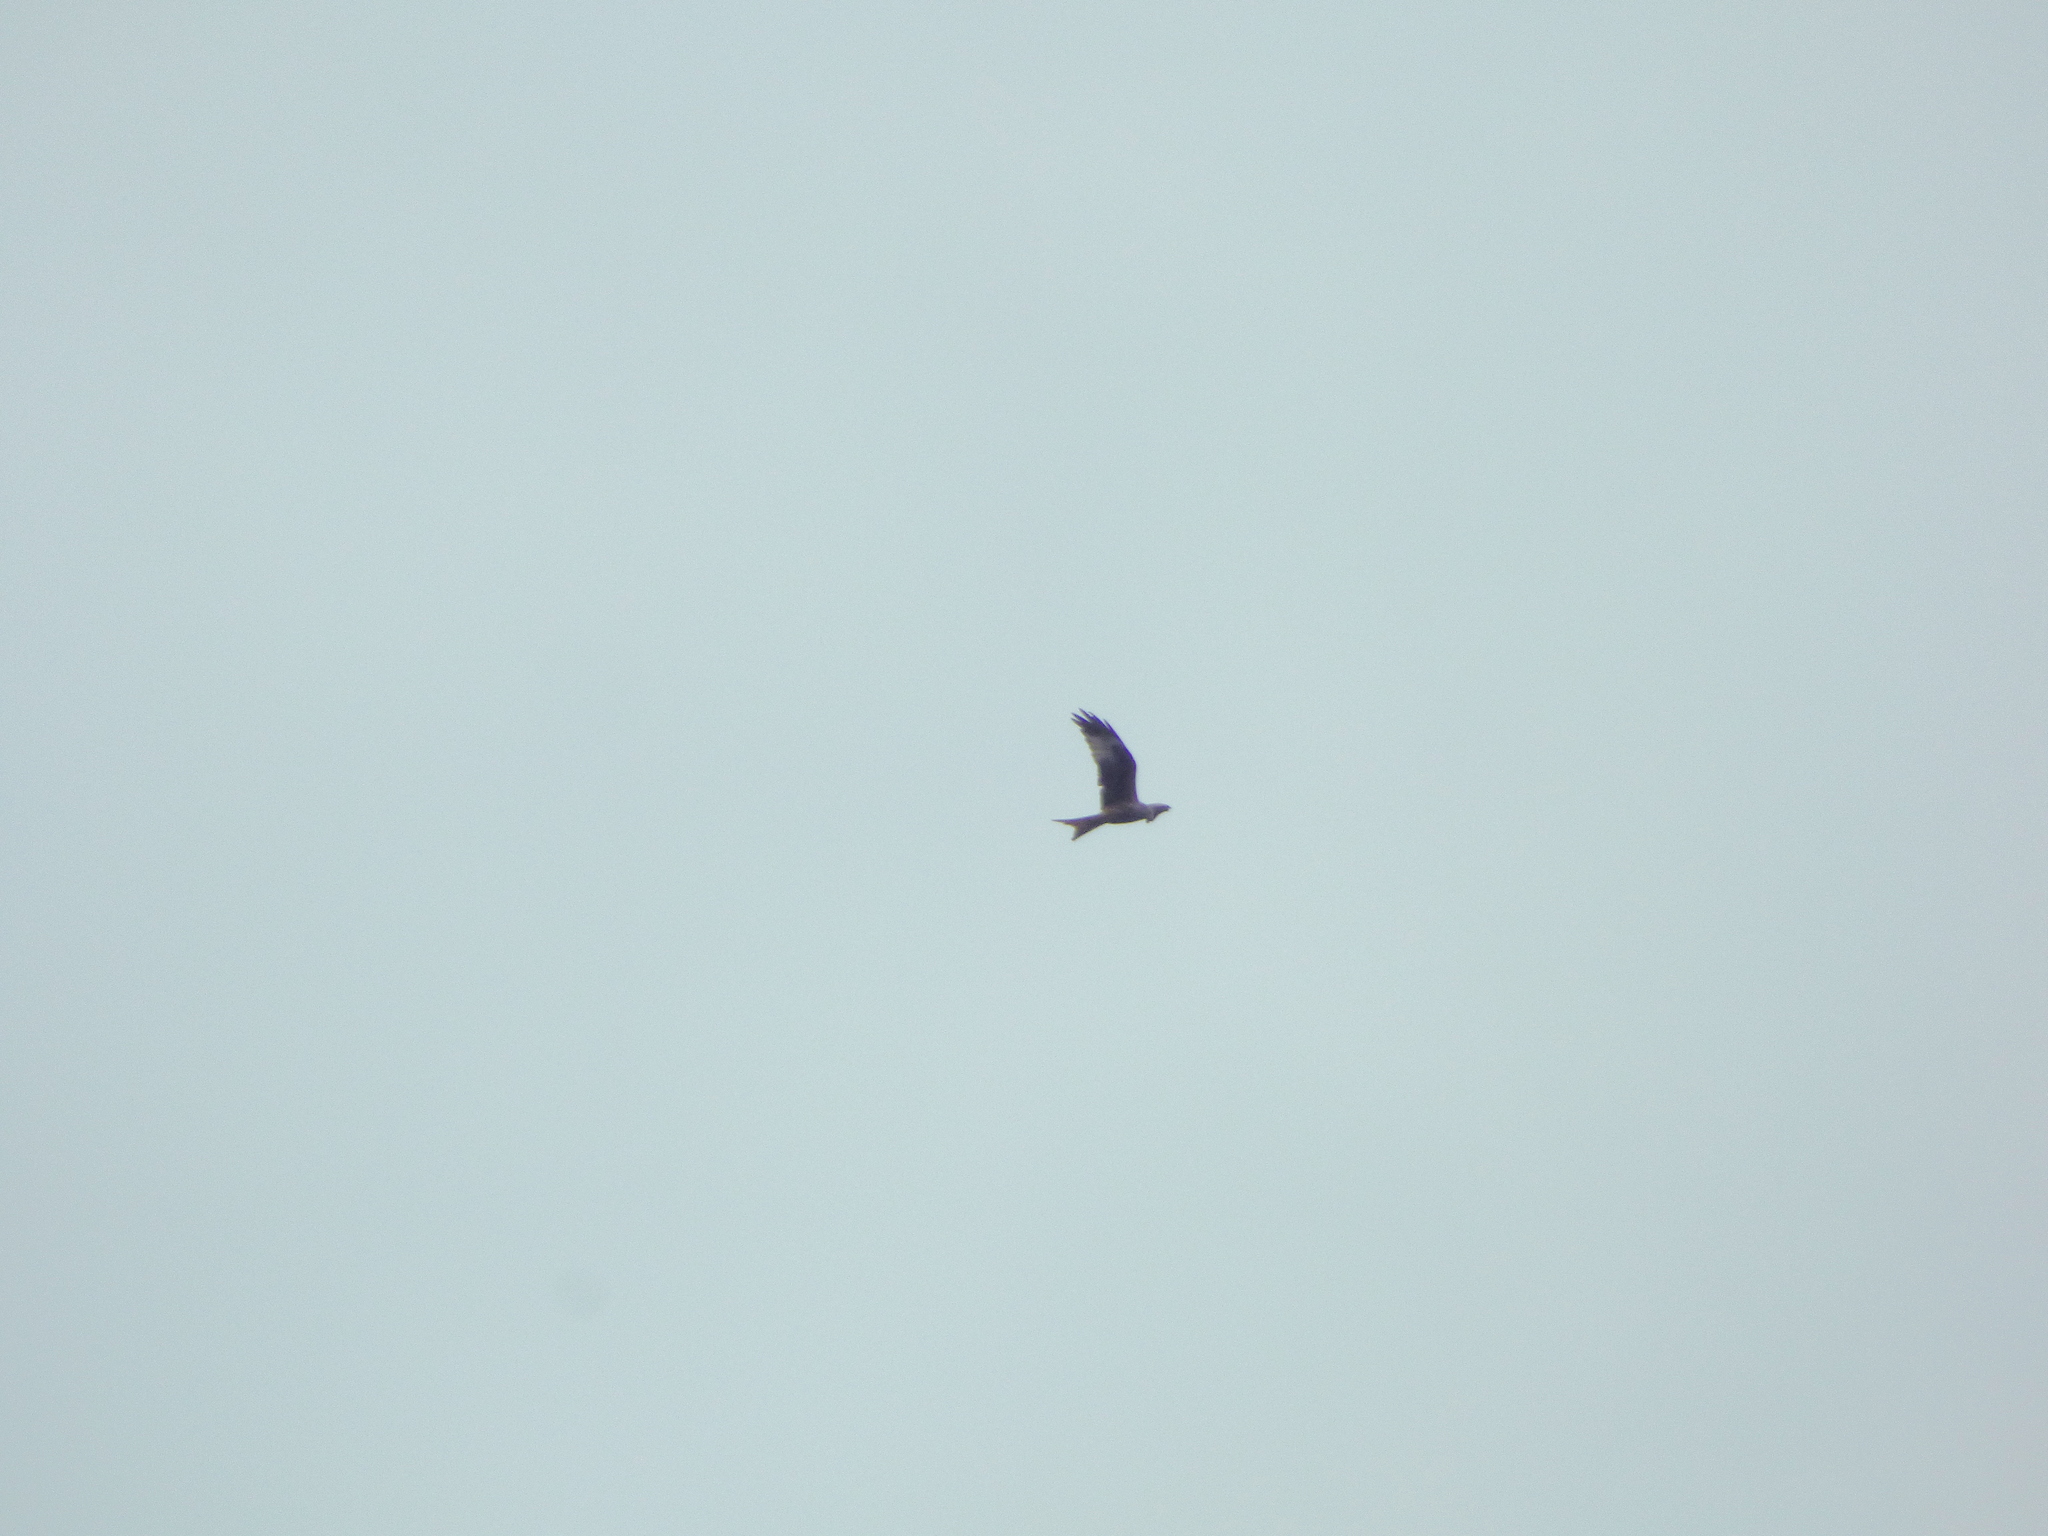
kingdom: Animalia
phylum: Chordata
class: Aves
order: Accipitriformes
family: Accipitridae
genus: Milvus
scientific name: Milvus milvus
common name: Red kite
